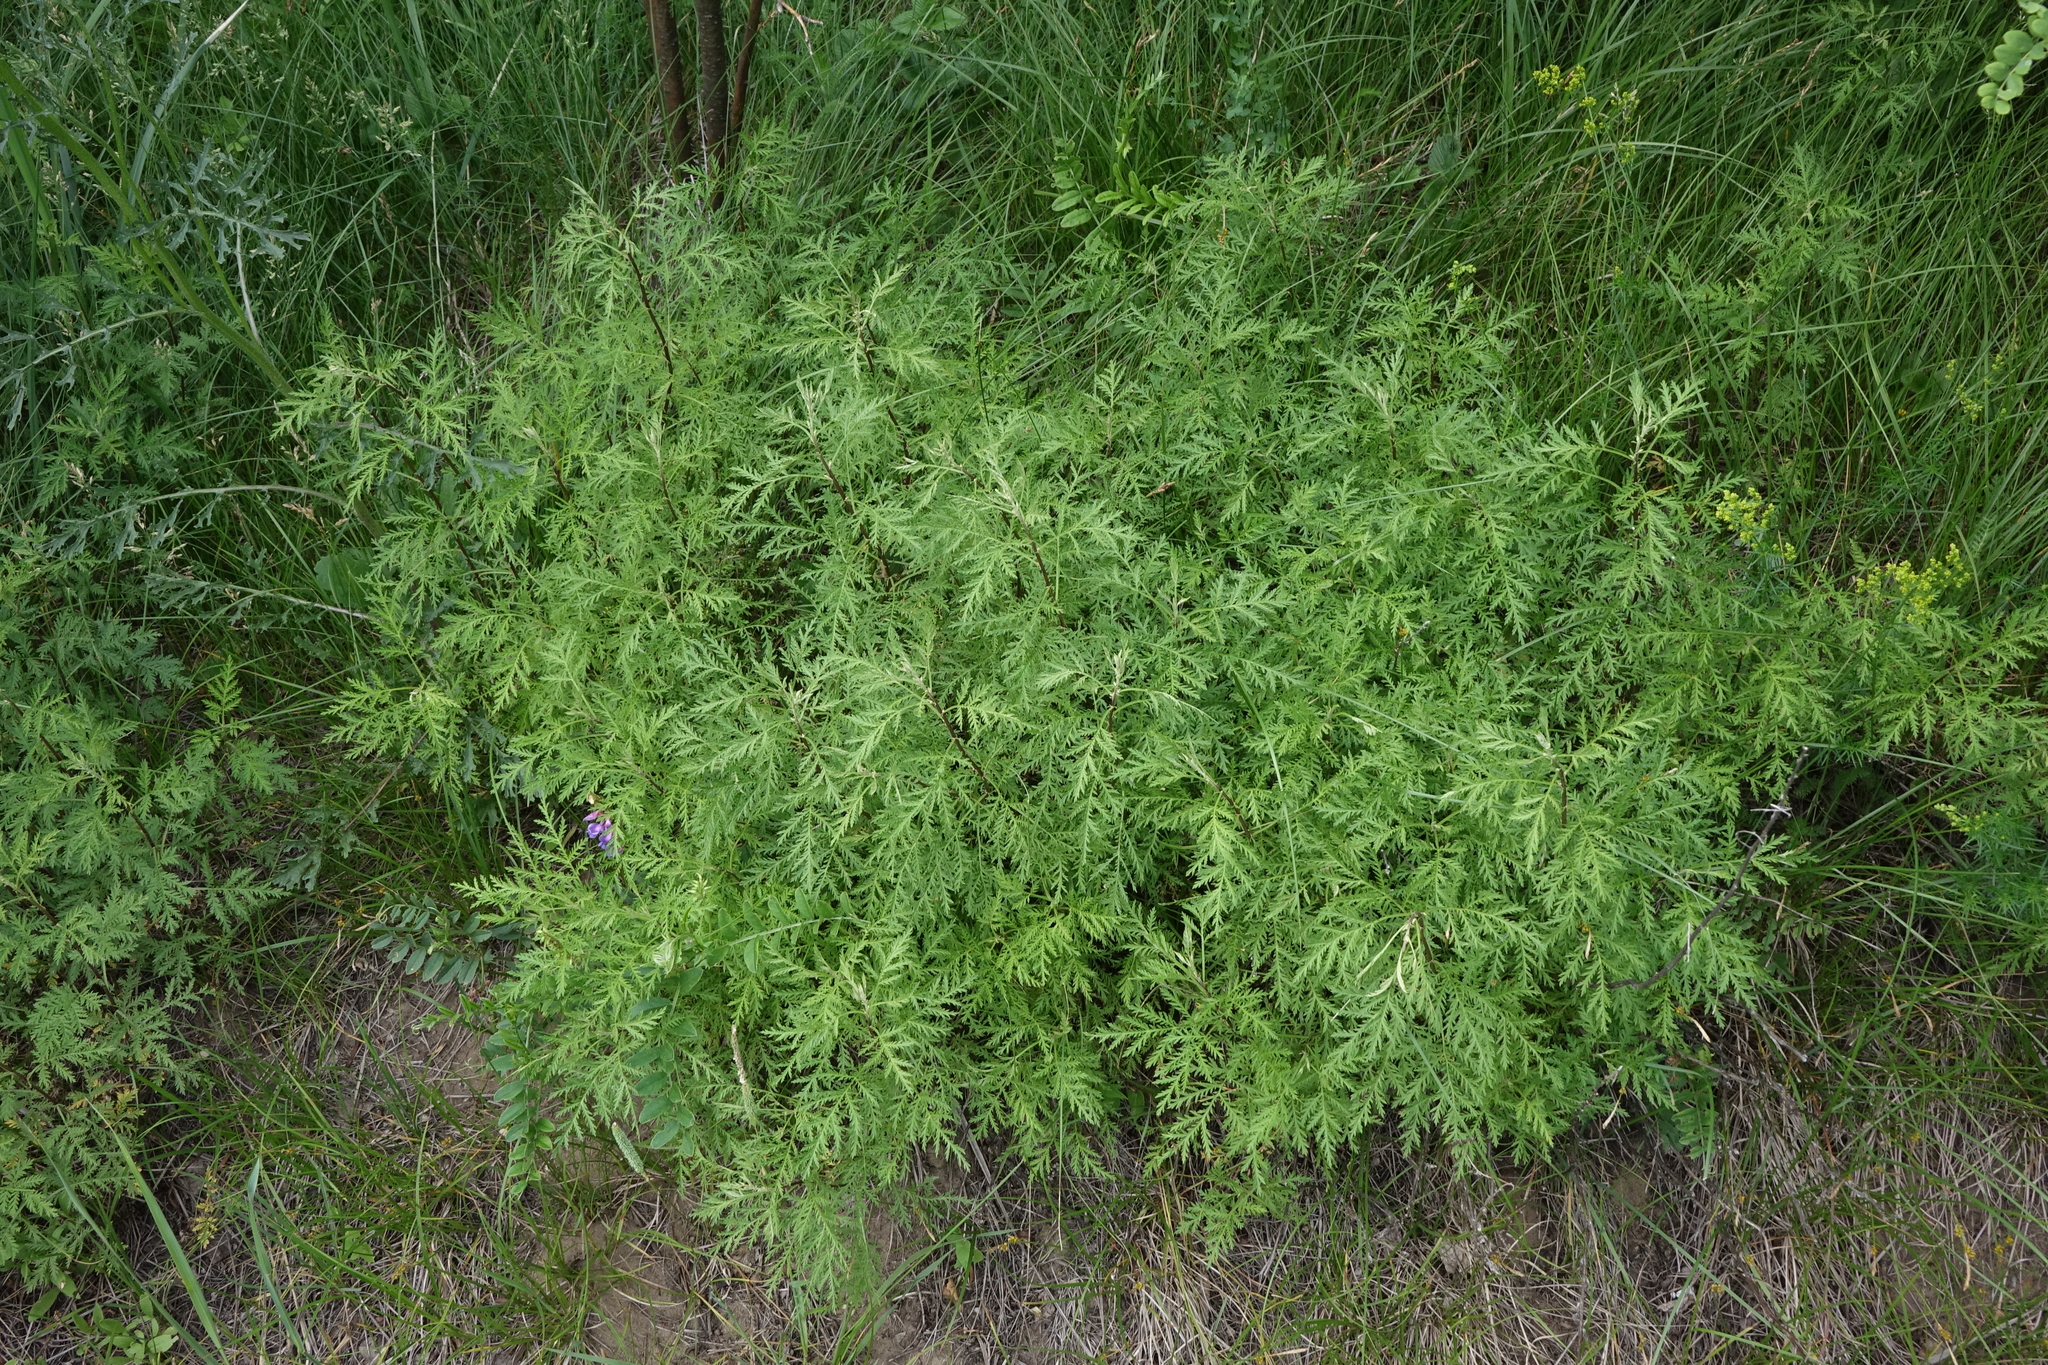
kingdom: Plantae
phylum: Tracheophyta
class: Magnoliopsida
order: Asterales
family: Asteraceae
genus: Artemisia
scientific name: Artemisia gmelinii
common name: Gmelin's wormwood
